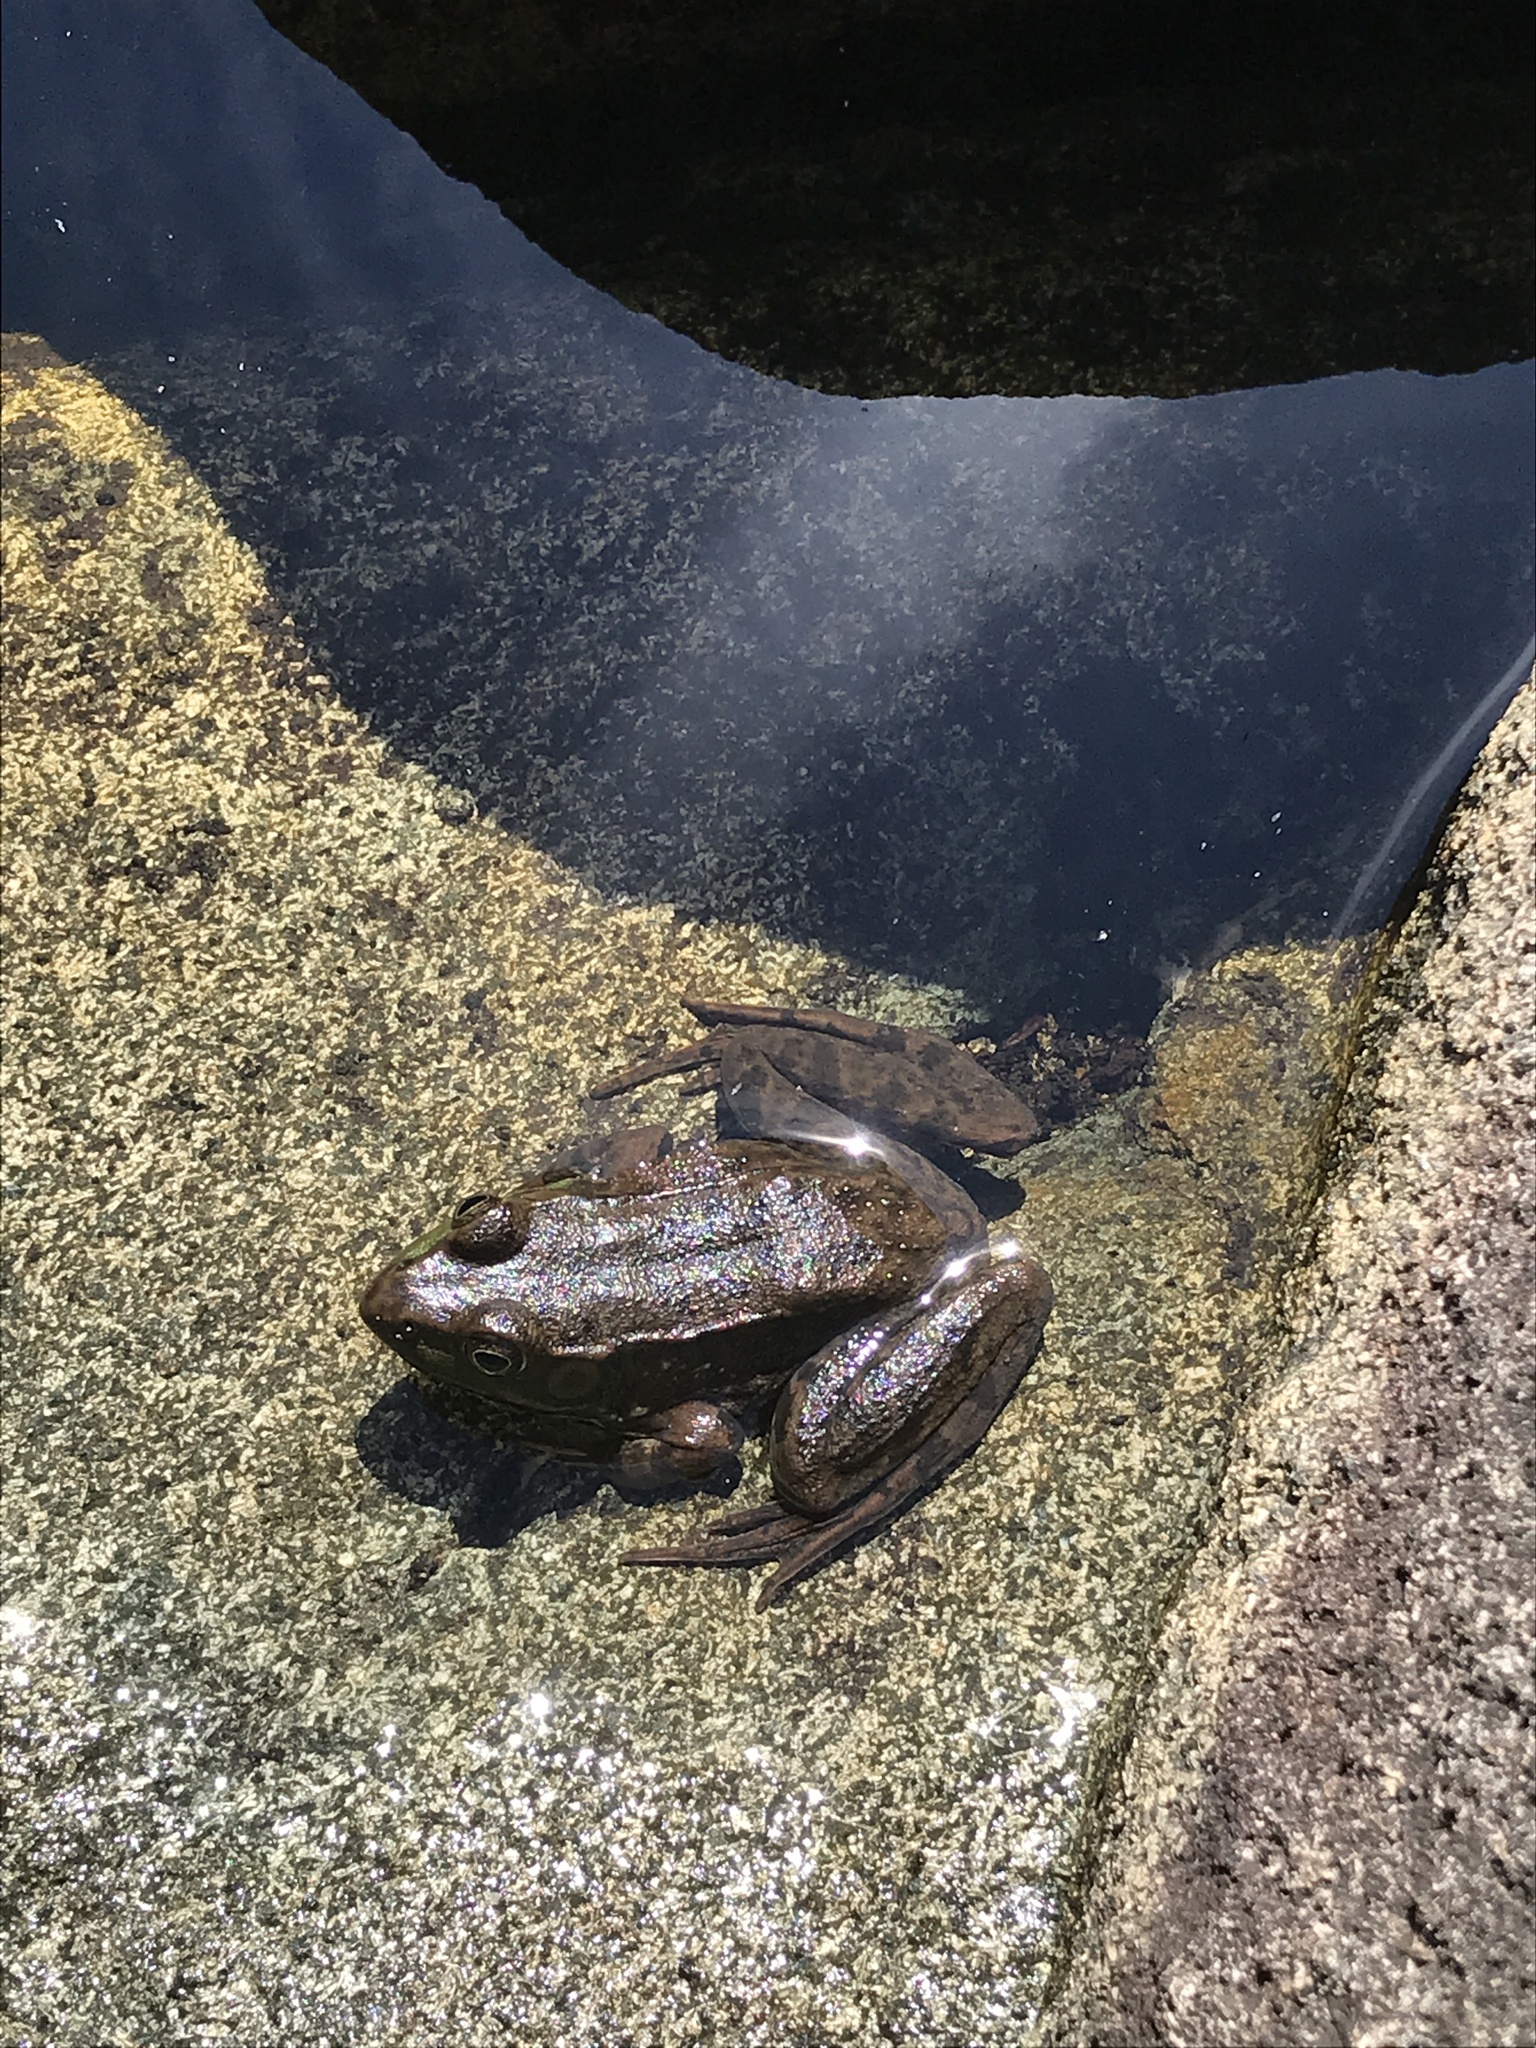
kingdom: Animalia
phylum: Chordata
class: Amphibia
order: Anura
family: Ranidae
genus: Lithobates
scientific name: Lithobates clamitans
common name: Green frog
